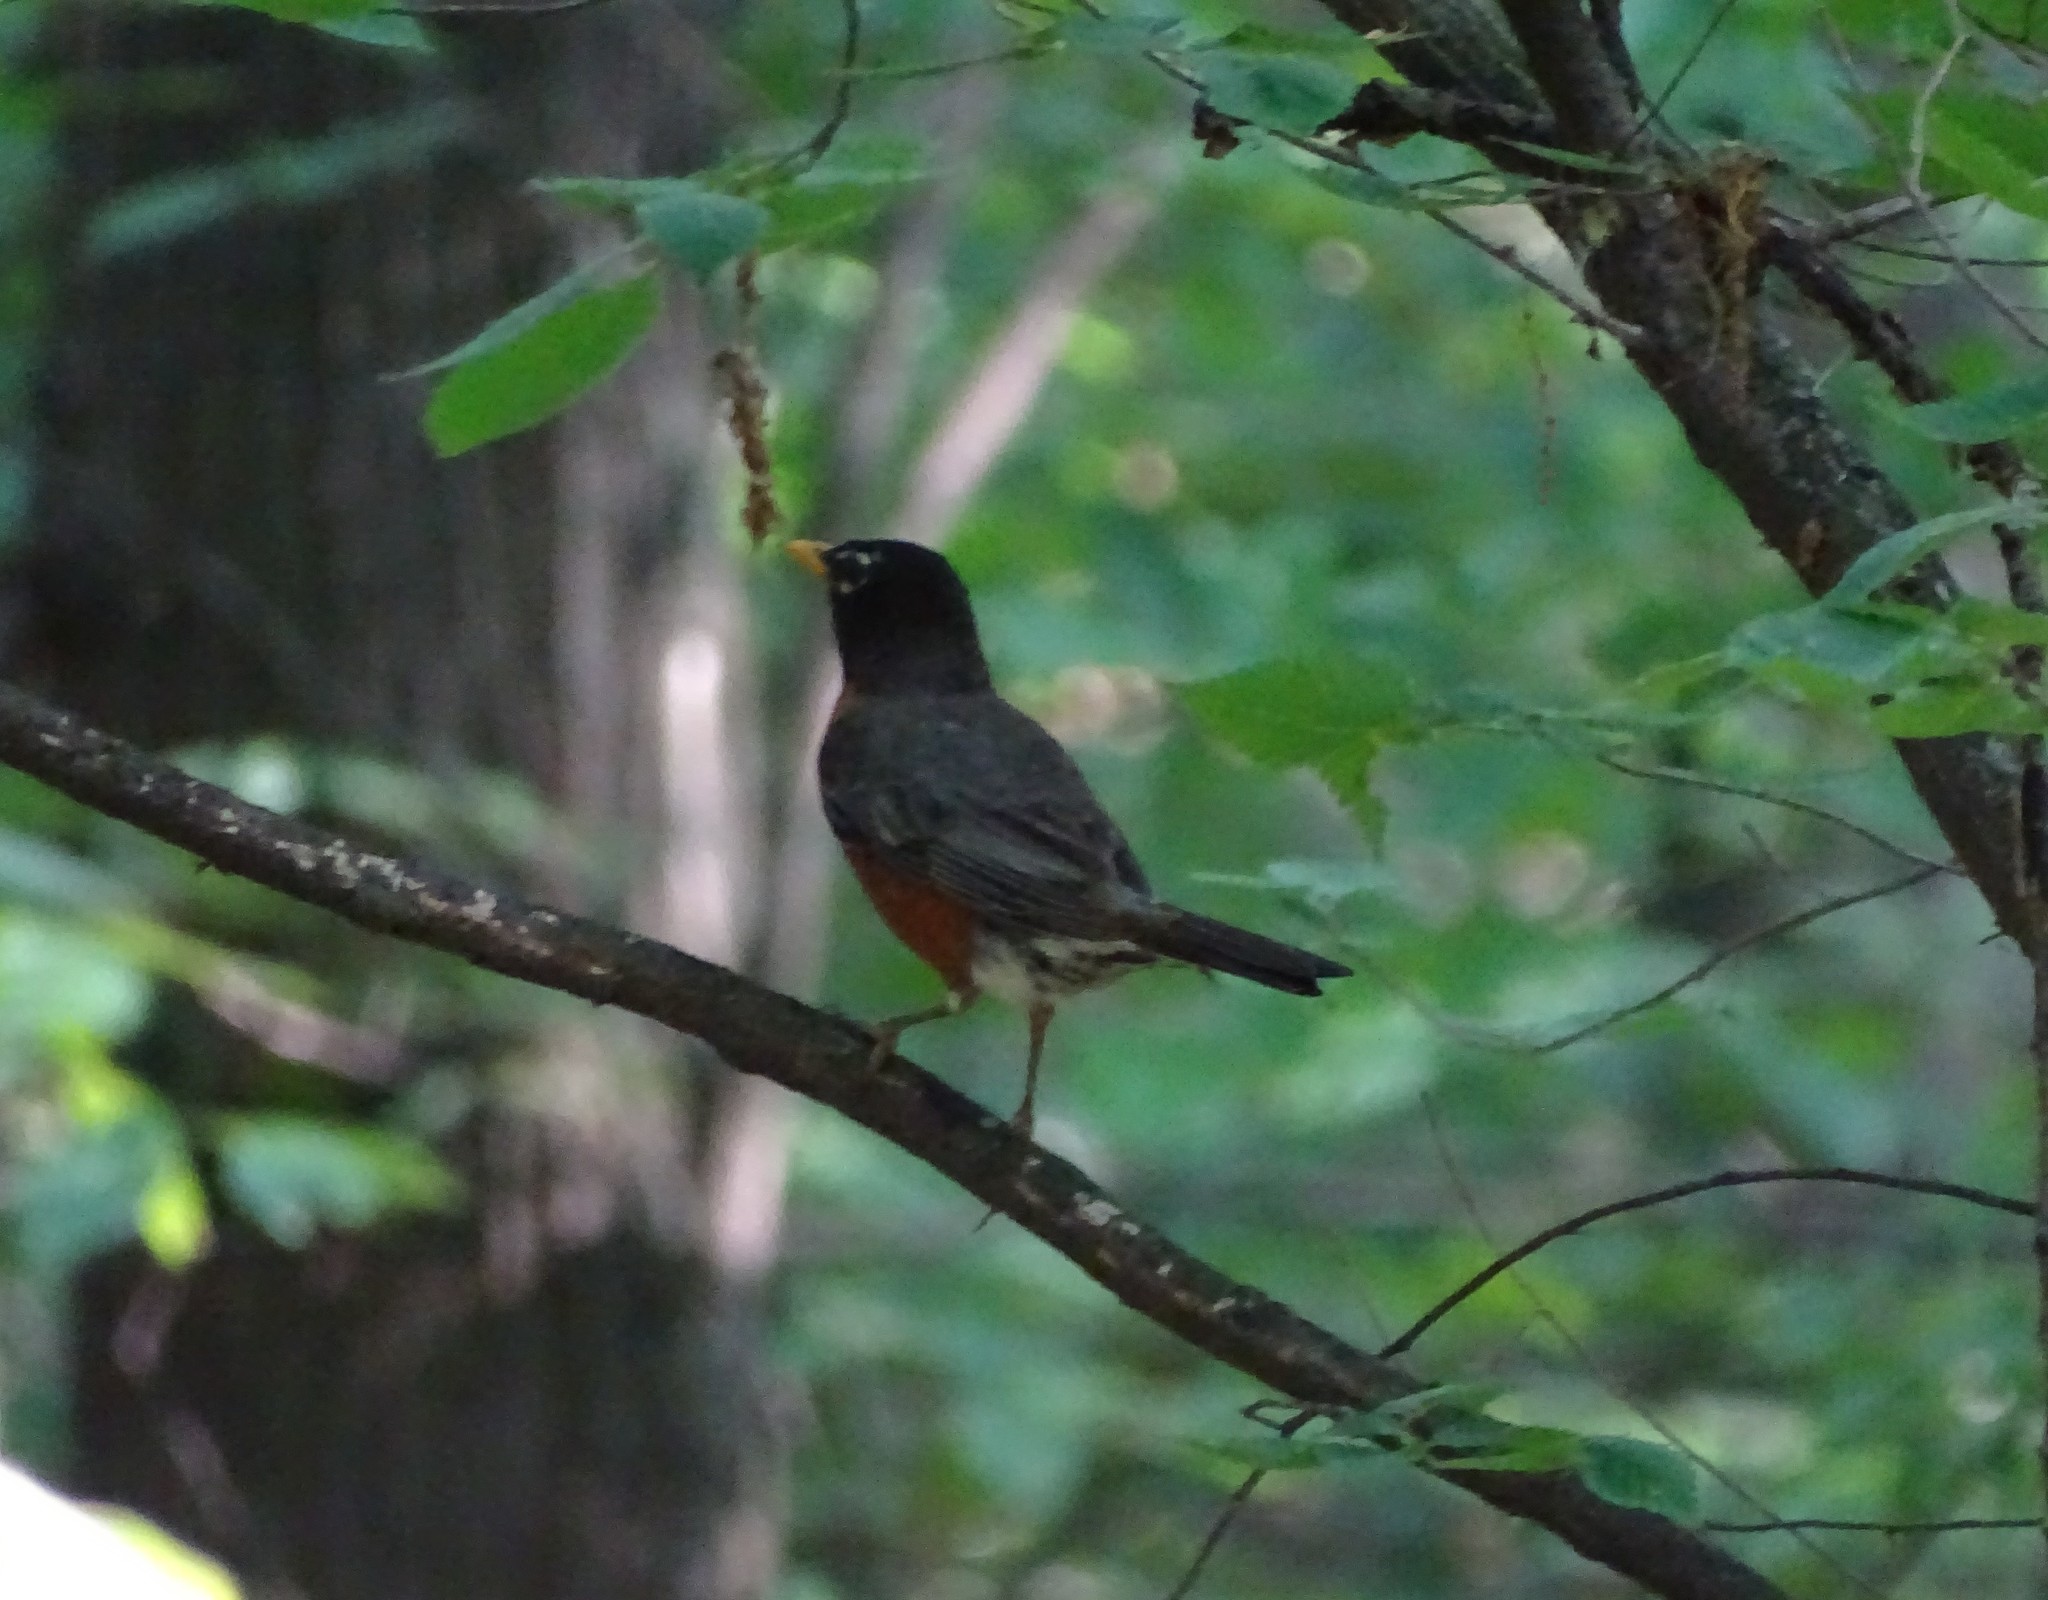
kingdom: Animalia
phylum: Chordata
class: Aves
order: Passeriformes
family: Turdidae
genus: Turdus
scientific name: Turdus migratorius
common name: American robin
